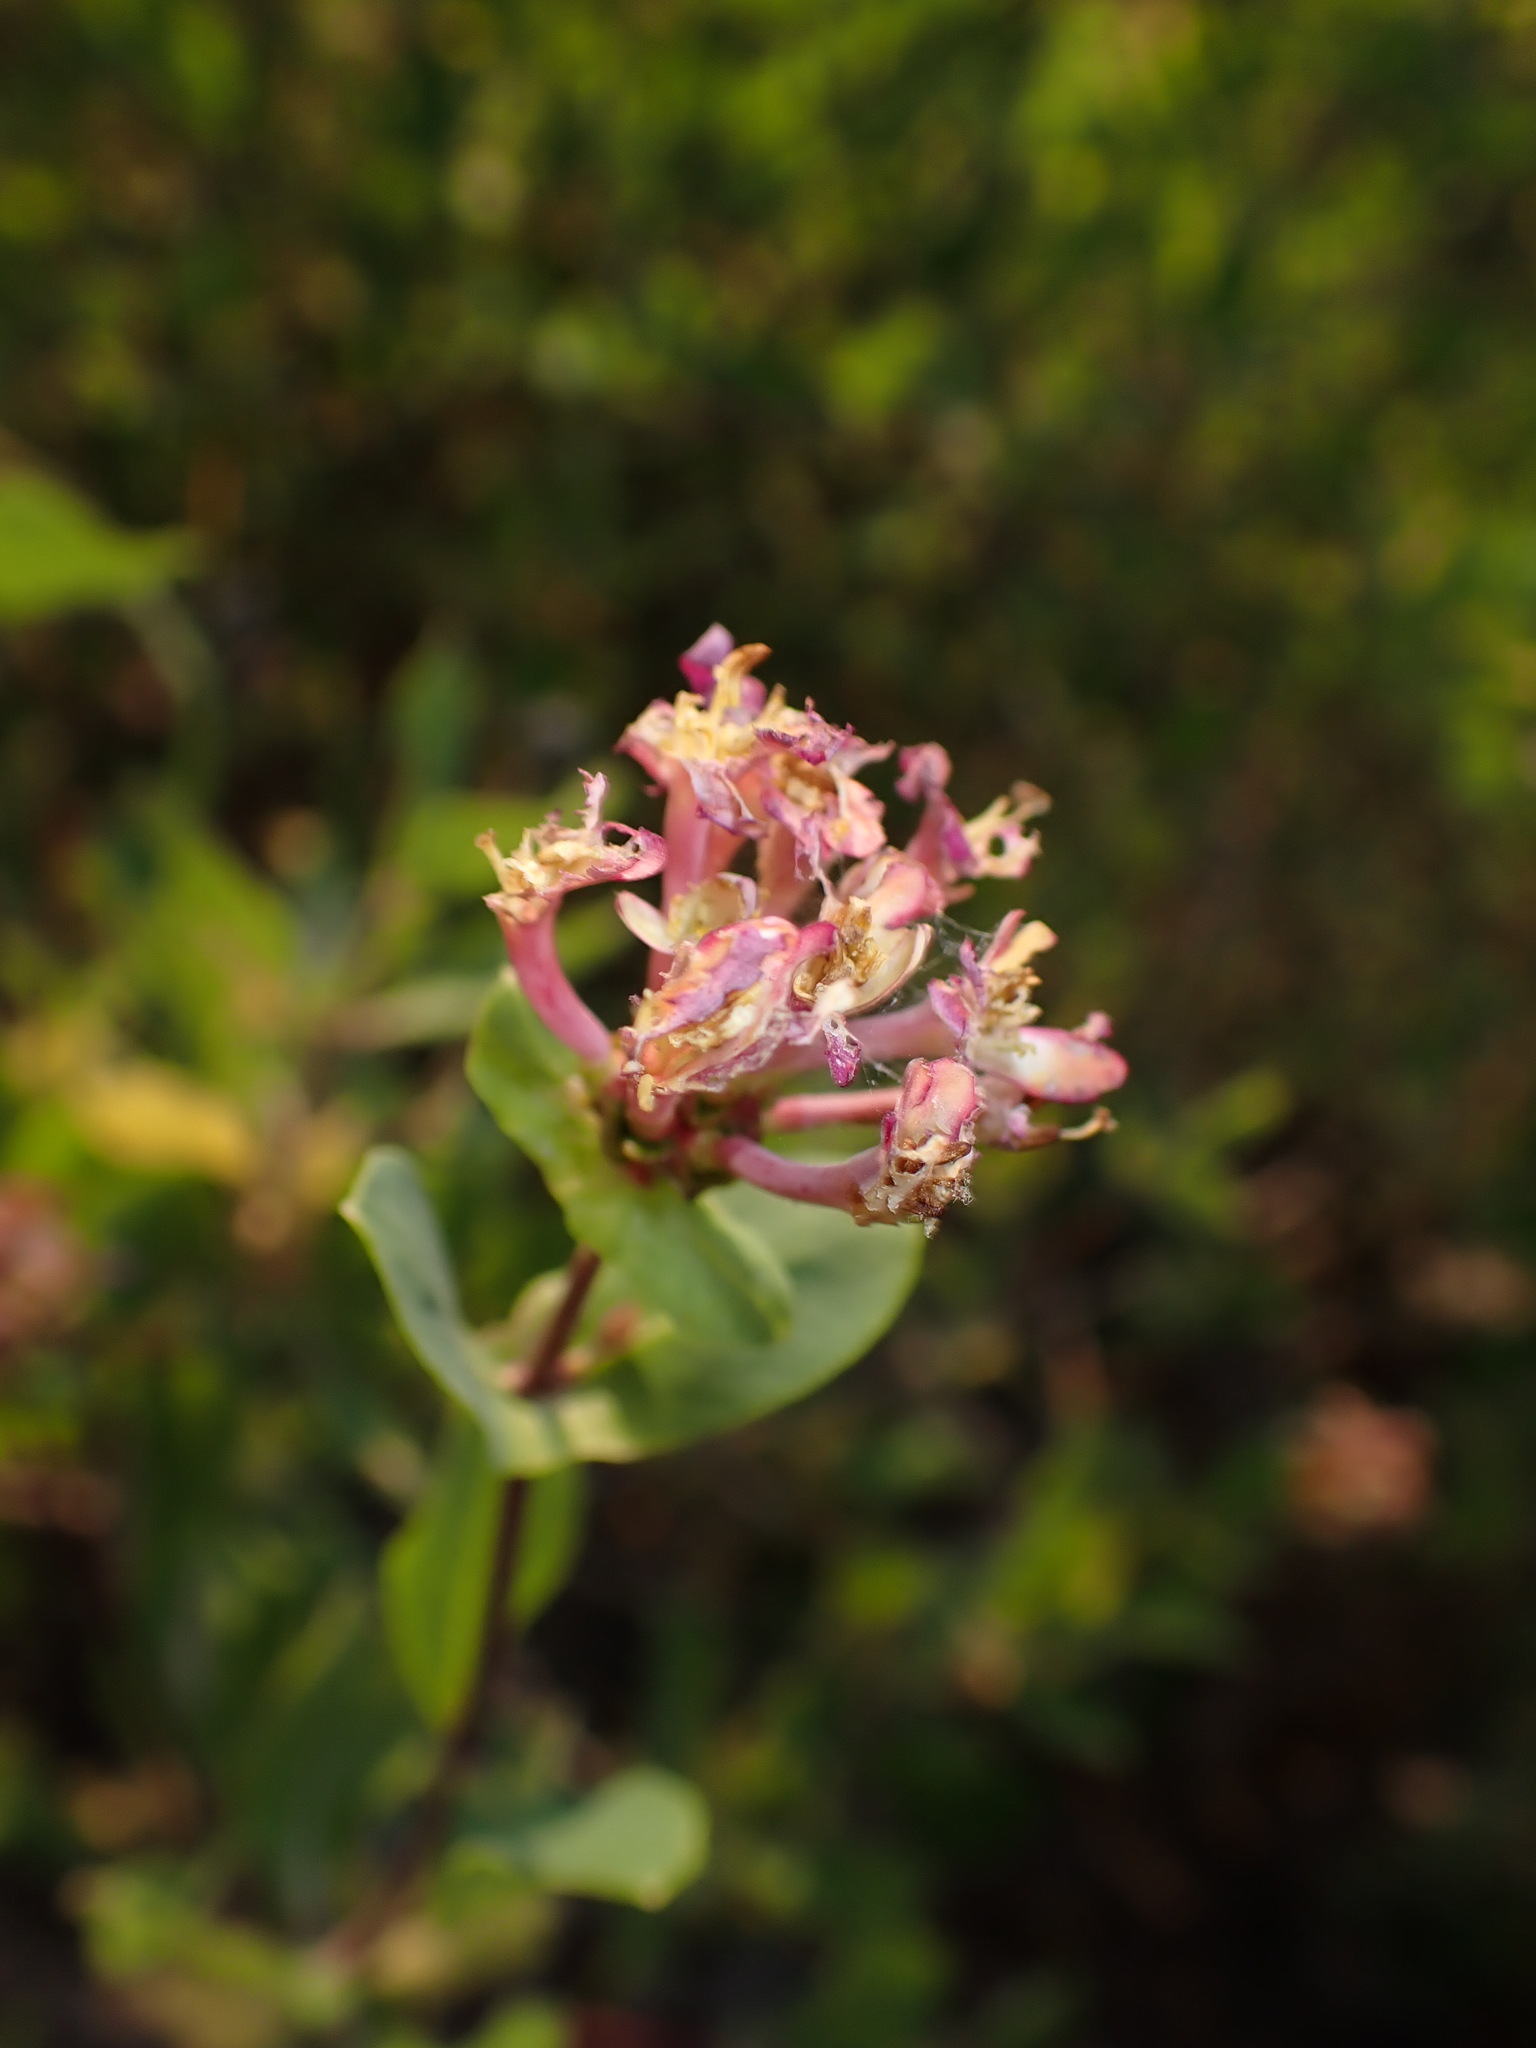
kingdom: Plantae
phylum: Tracheophyta
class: Magnoliopsida
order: Dipsacales
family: Caprifoliaceae
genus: Lonicera
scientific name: Lonicera implexa
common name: Minorca honeysuckle
